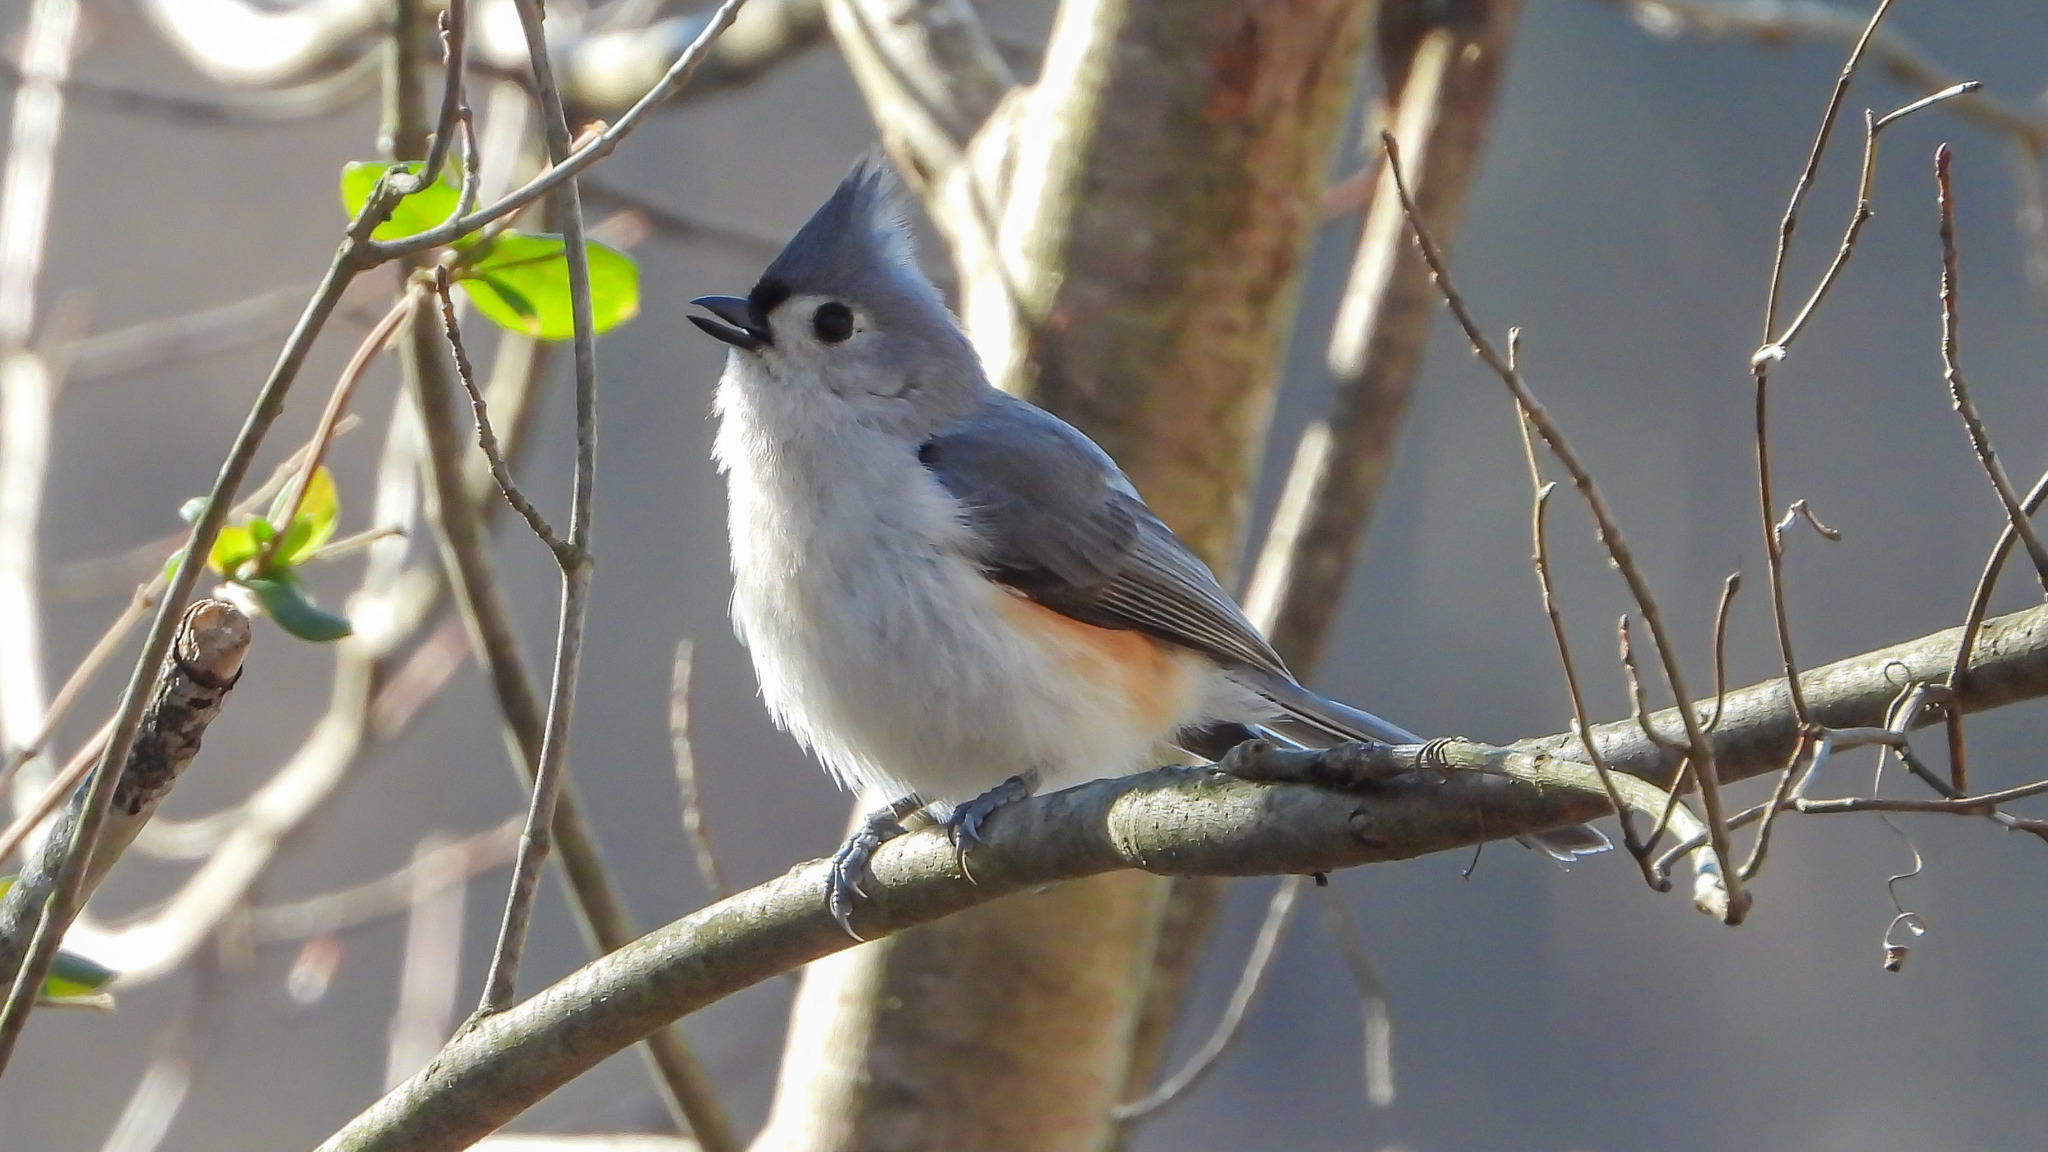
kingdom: Animalia
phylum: Chordata
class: Aves
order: Passeriformes
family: Paridae
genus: Baeolophus
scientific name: Baeolophus bicolor
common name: Tufted titmouse
